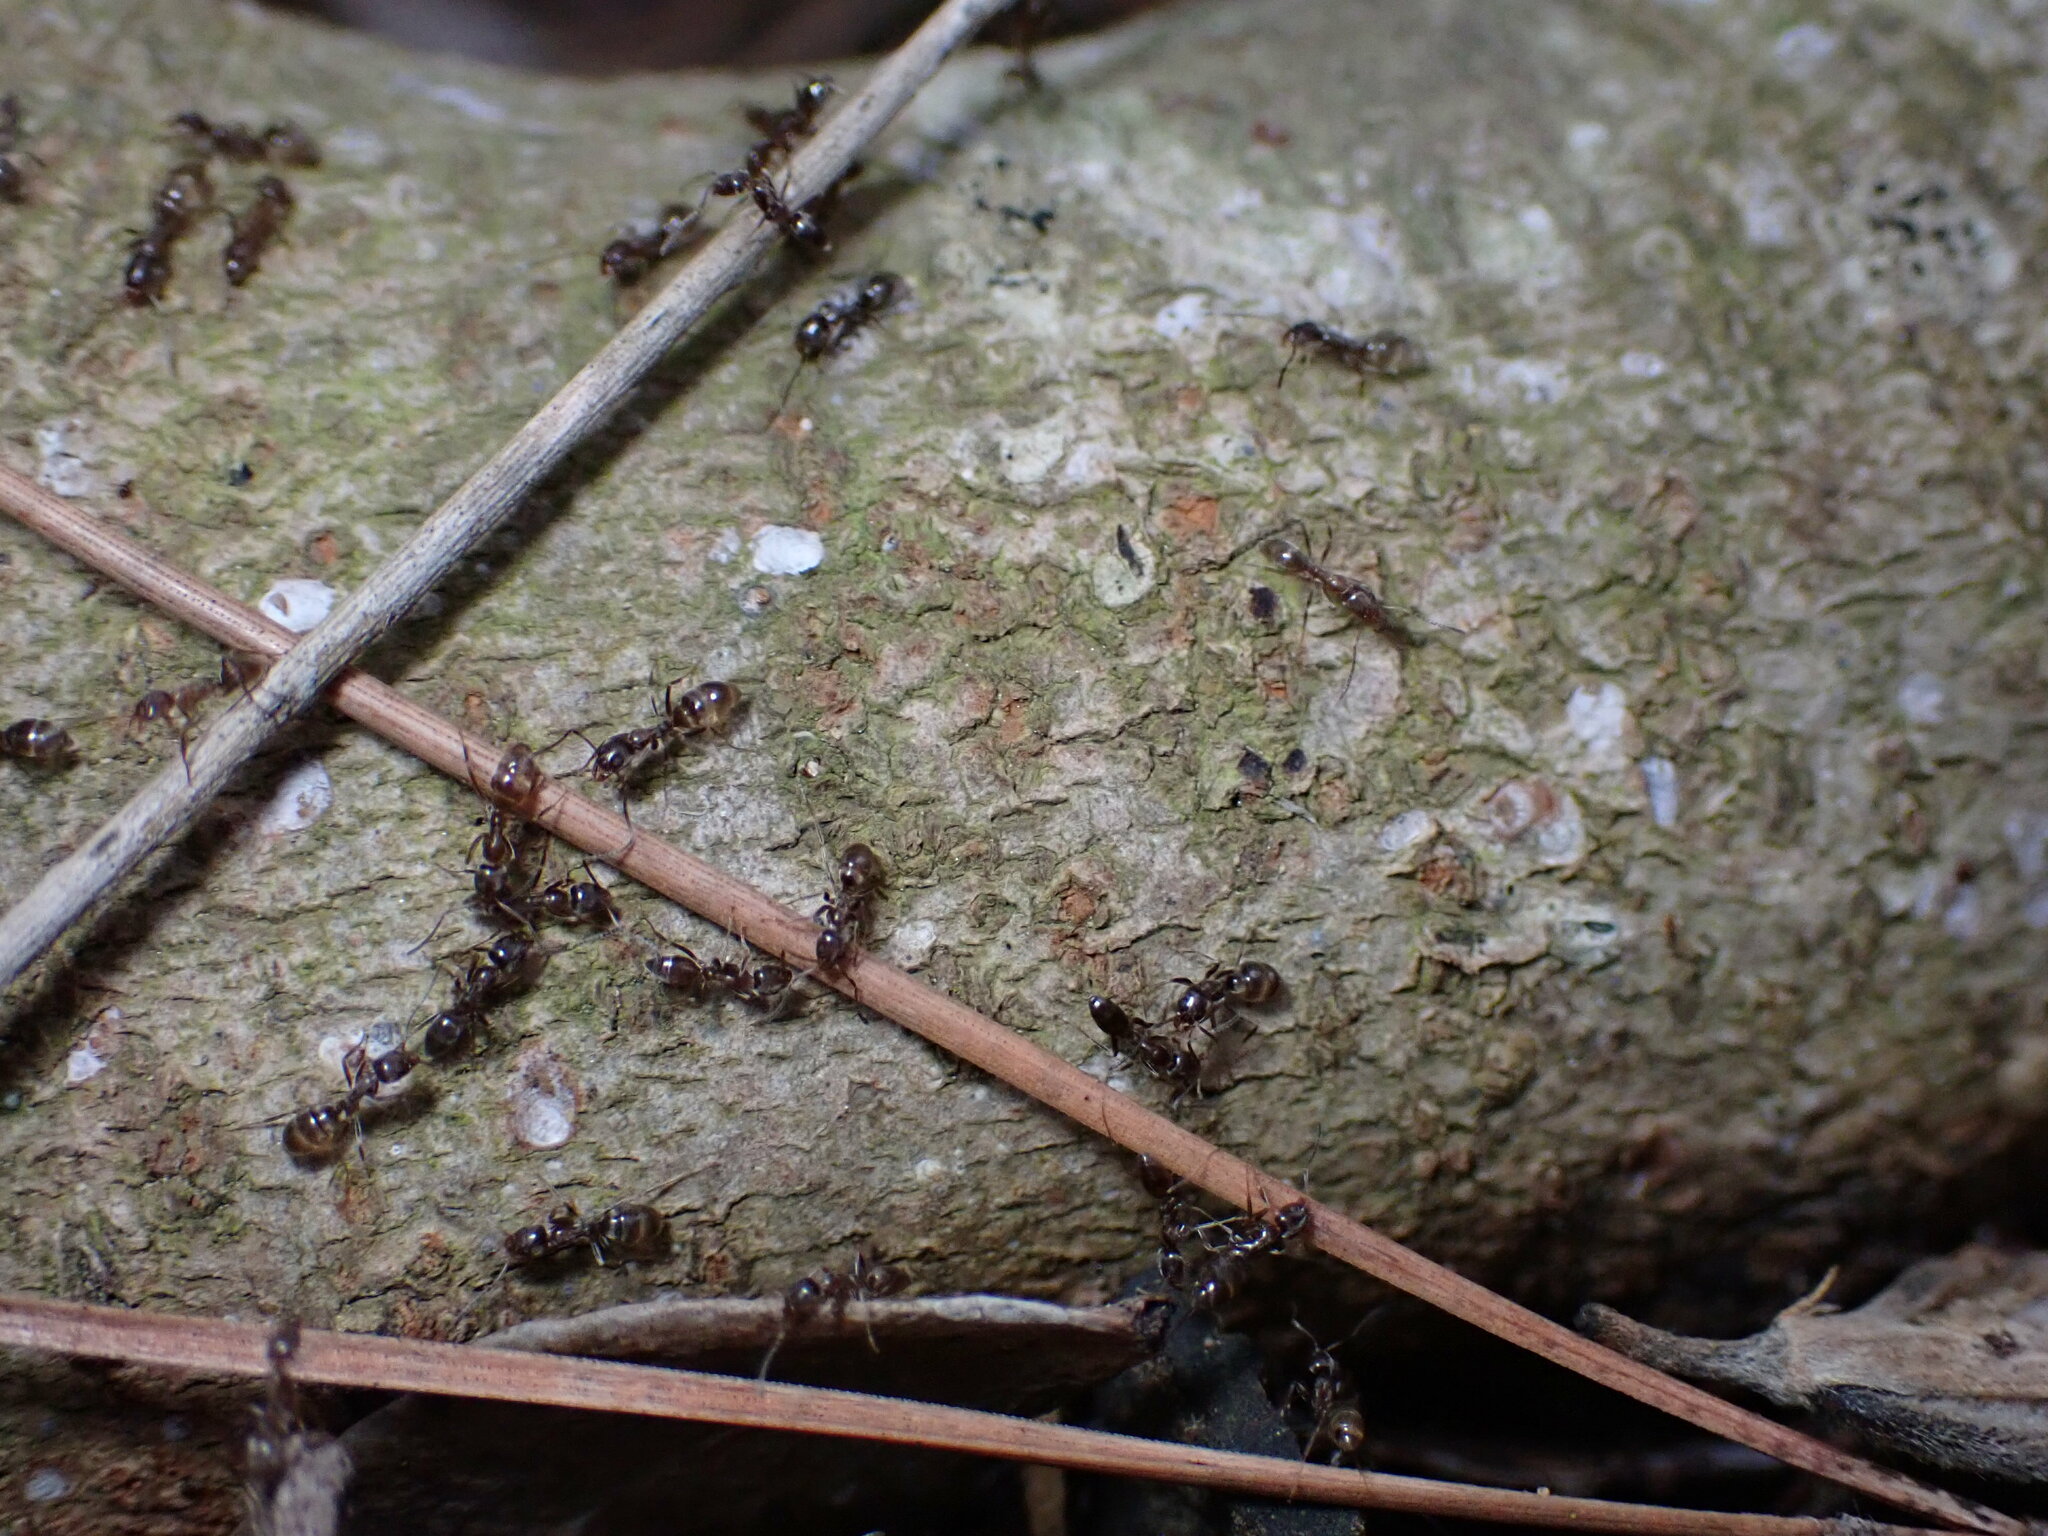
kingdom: Animalia
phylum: Arthropoda
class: Insecta
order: Hymenoptera
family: Formicidae
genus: Linepithema
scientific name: Linepithema humile
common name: Argentine ant
